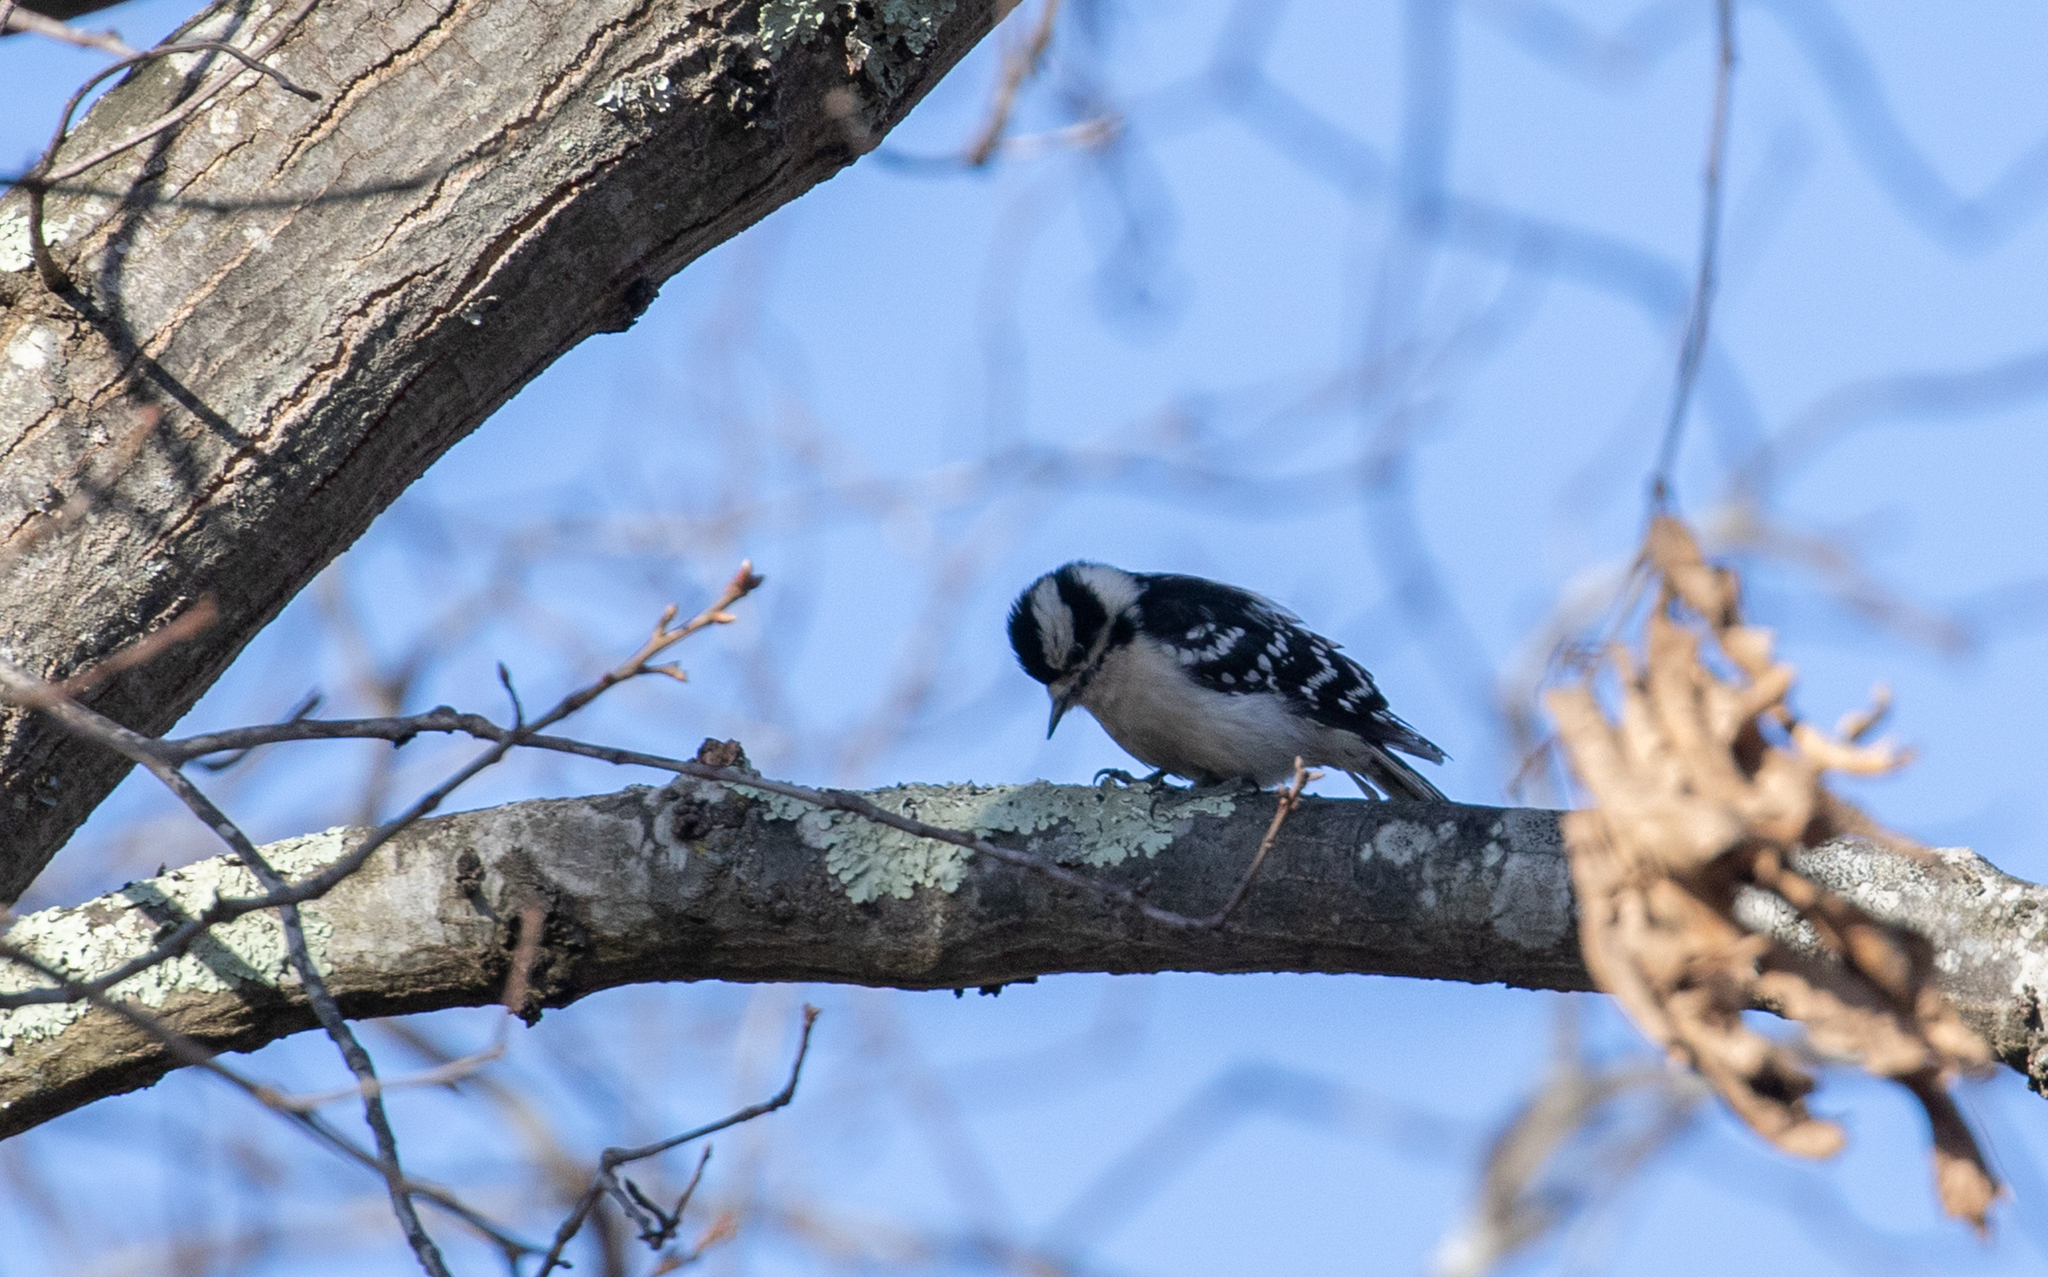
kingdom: Animalia
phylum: Chordata
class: Aves
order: Piciformes
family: Picidae
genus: Dryobates
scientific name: Dryobates pubescens
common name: Downy woodpecker
